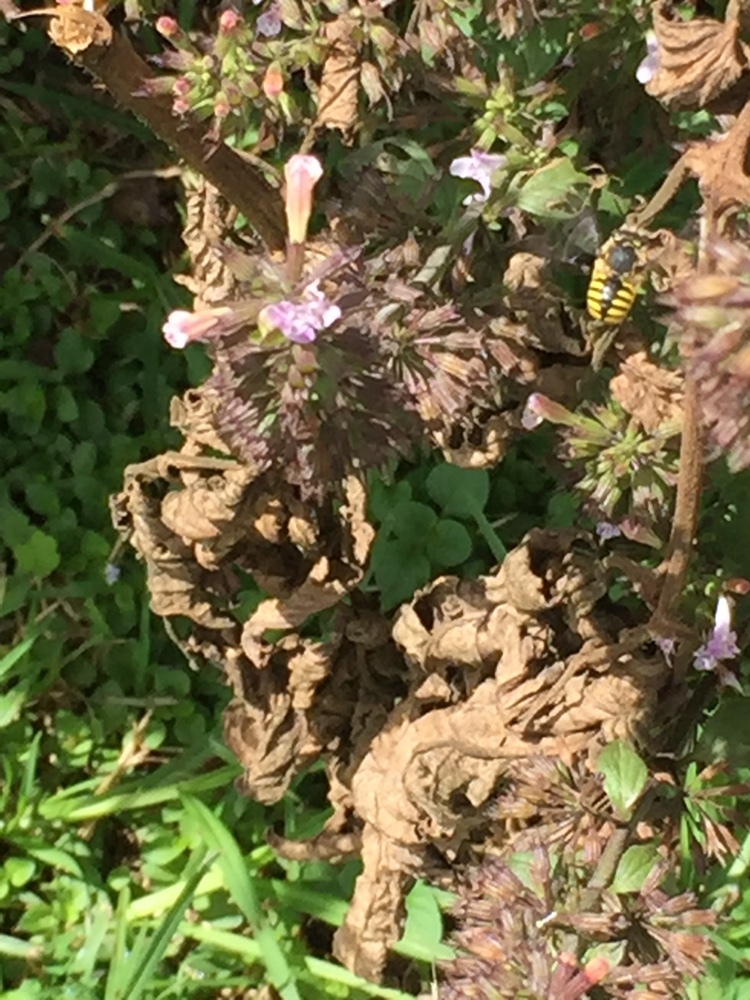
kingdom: Animalia
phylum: Arthropoda
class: Insecta
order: Hymenoptera
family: Megachilidae
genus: Anthidium
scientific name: Anthidium manicatum
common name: Wool carder bee
